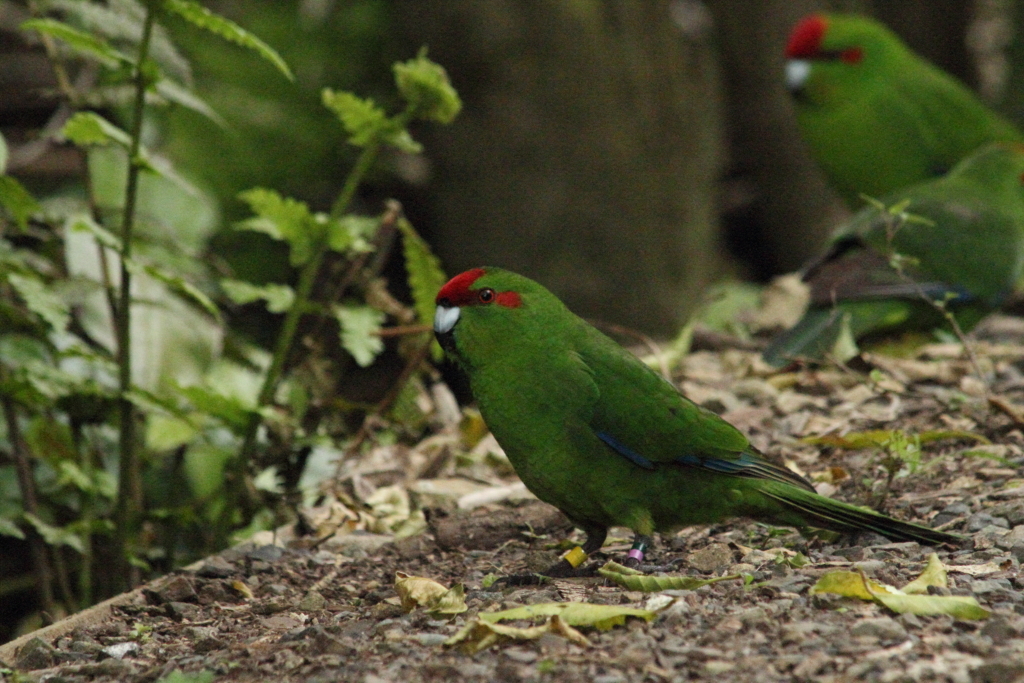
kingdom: Animalia
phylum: Chordata
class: Aves
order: Psittaciformes
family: Psittacidae
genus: Cyanoramphus
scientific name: Cyanoramphus novaezelandiae
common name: Red-fronted parakeet
